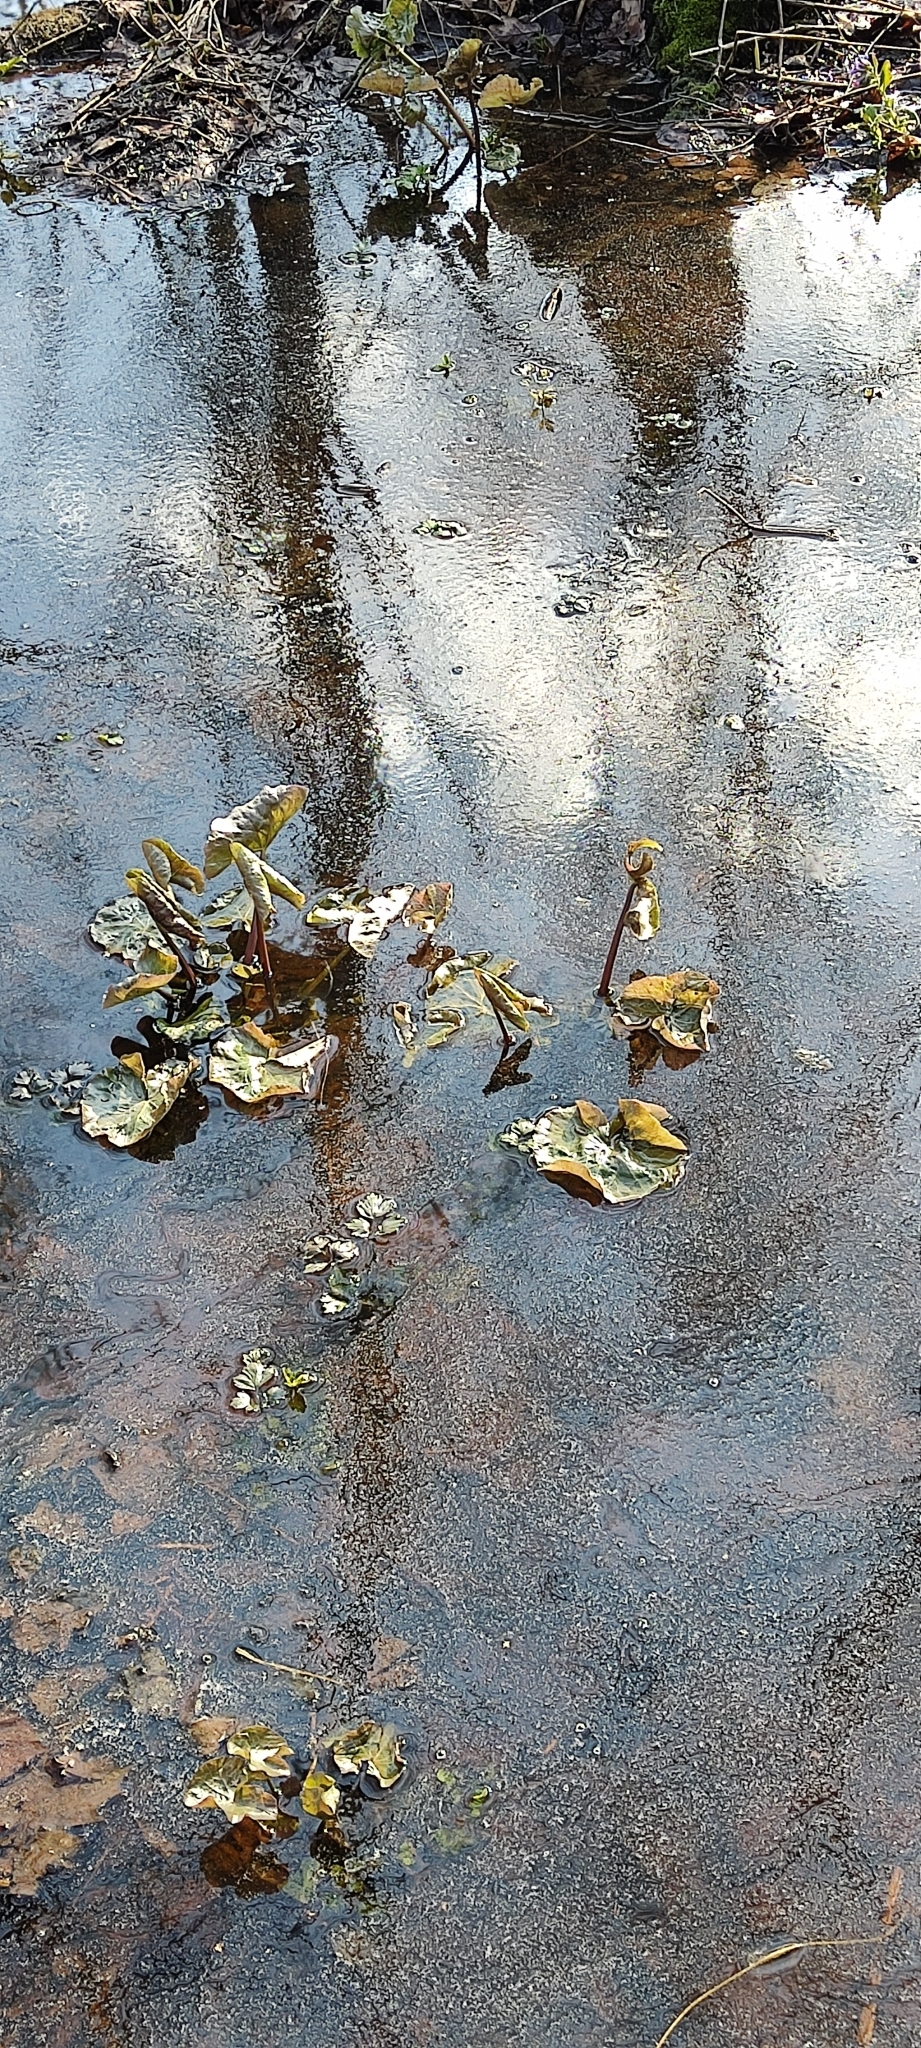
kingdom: Plantae
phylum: Tracheophyta
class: Magnoliopsida
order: Ranunculales
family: Ranunculaceae
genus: Caltha
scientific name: Caltha palustris
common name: Marsh marigold
